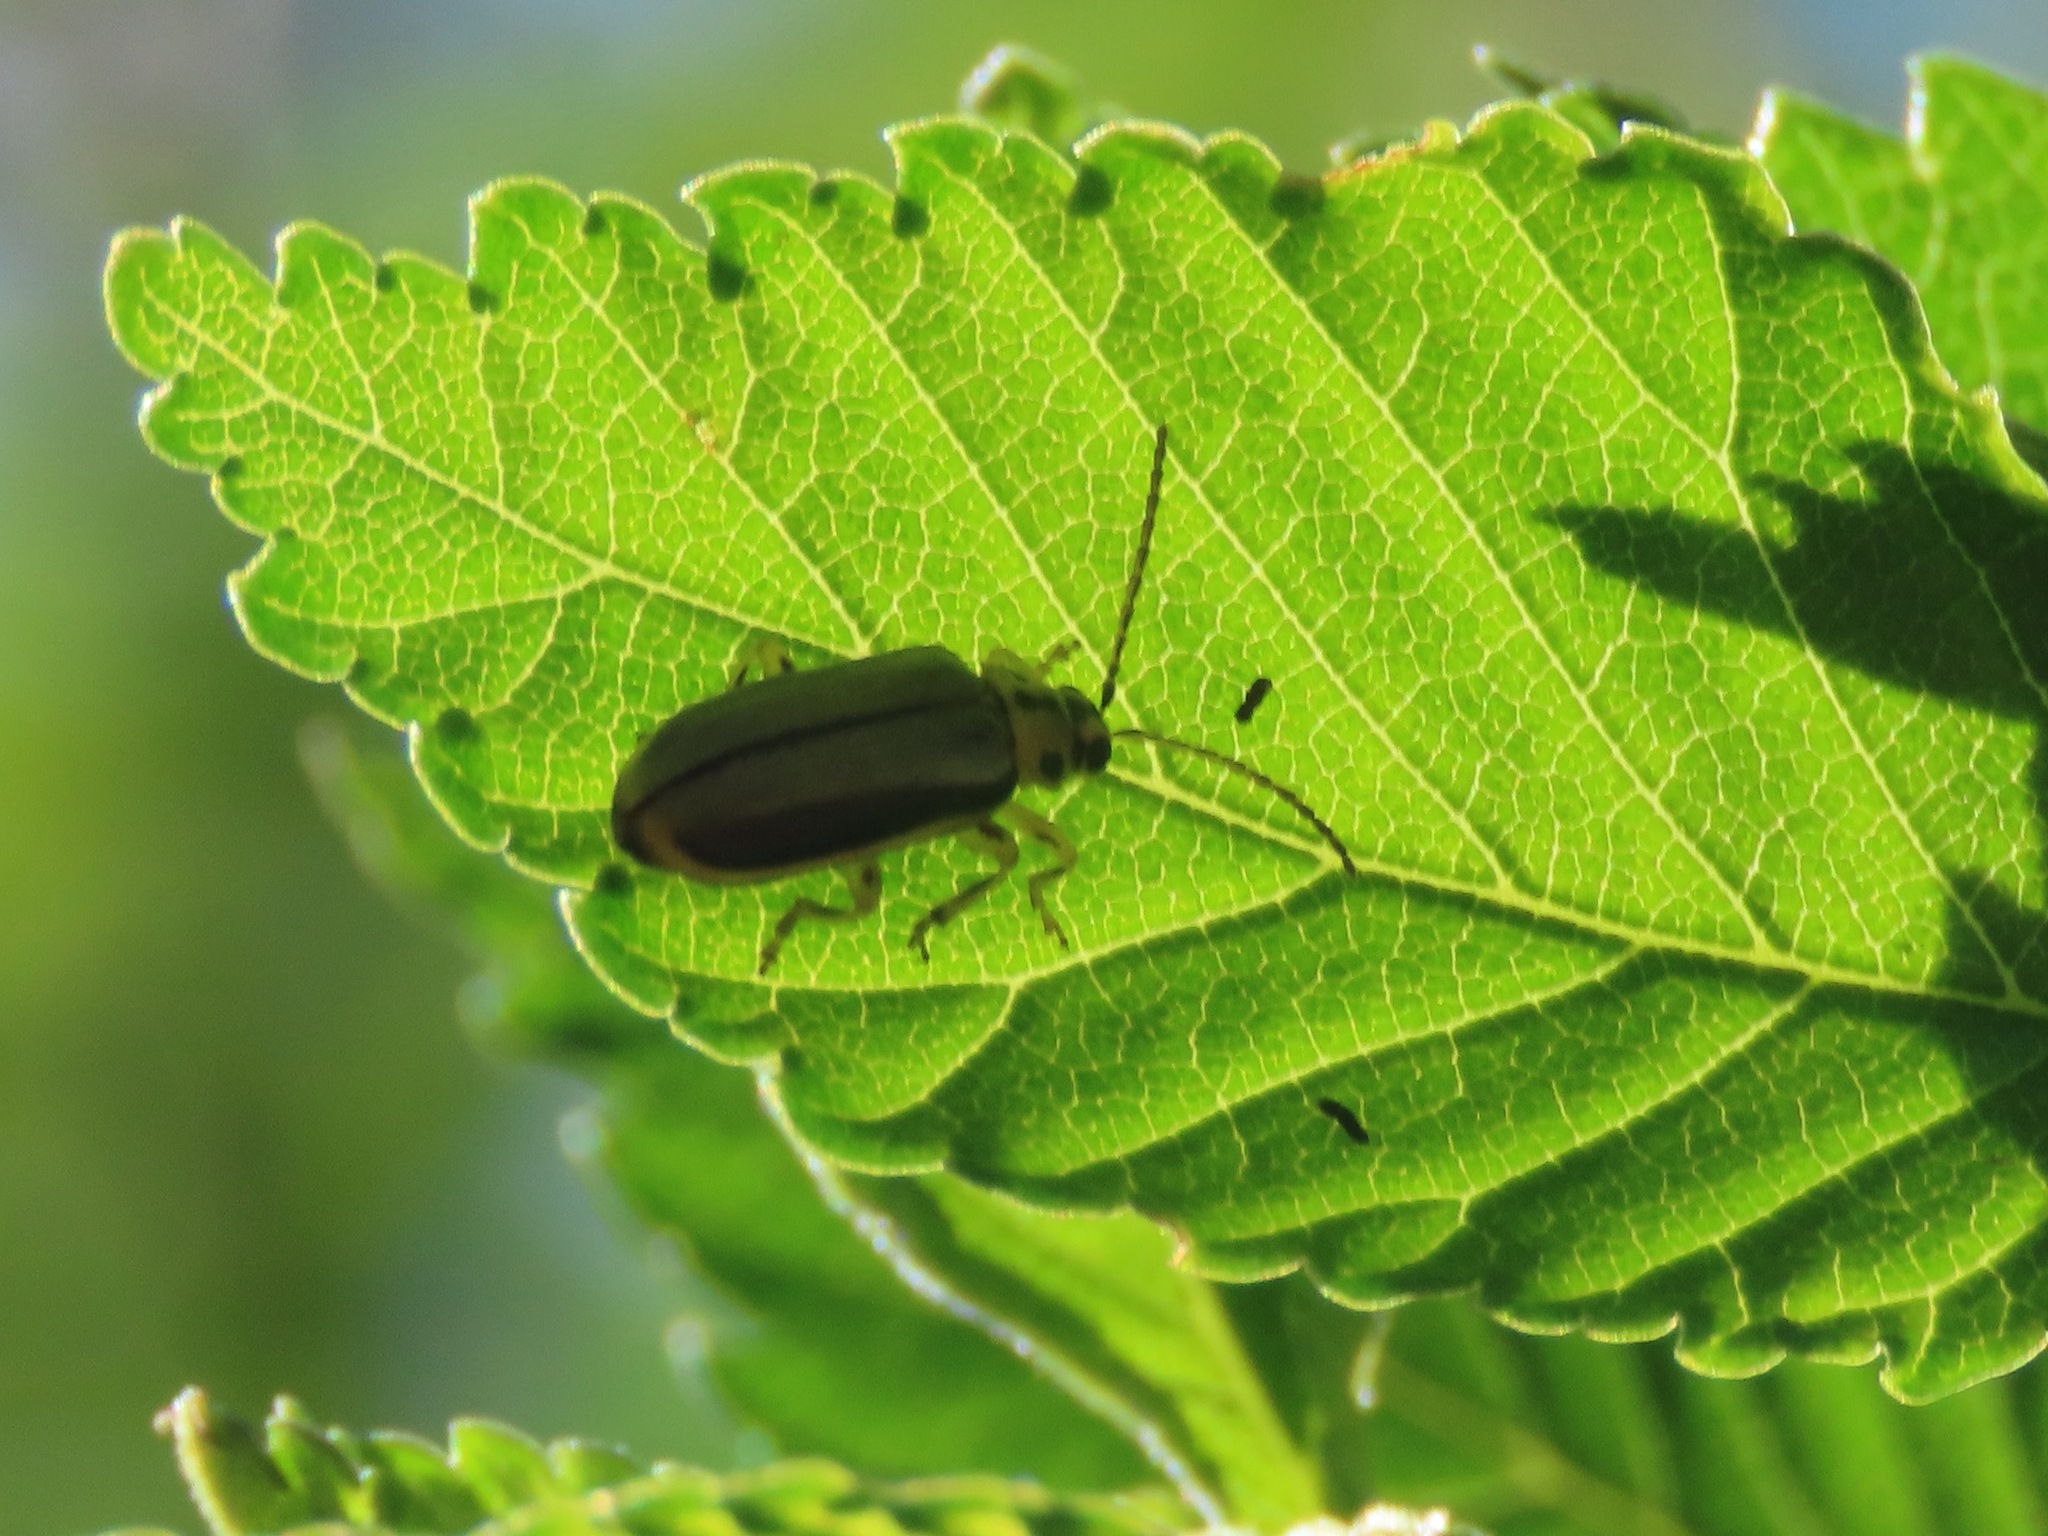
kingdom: Animalia
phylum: Arthropoda
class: Insecta
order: Coleoptera
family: Chrysomelidae
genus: Xanthogaleruca
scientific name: Xanthogaleruca luteola
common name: Elm leaf beetle
